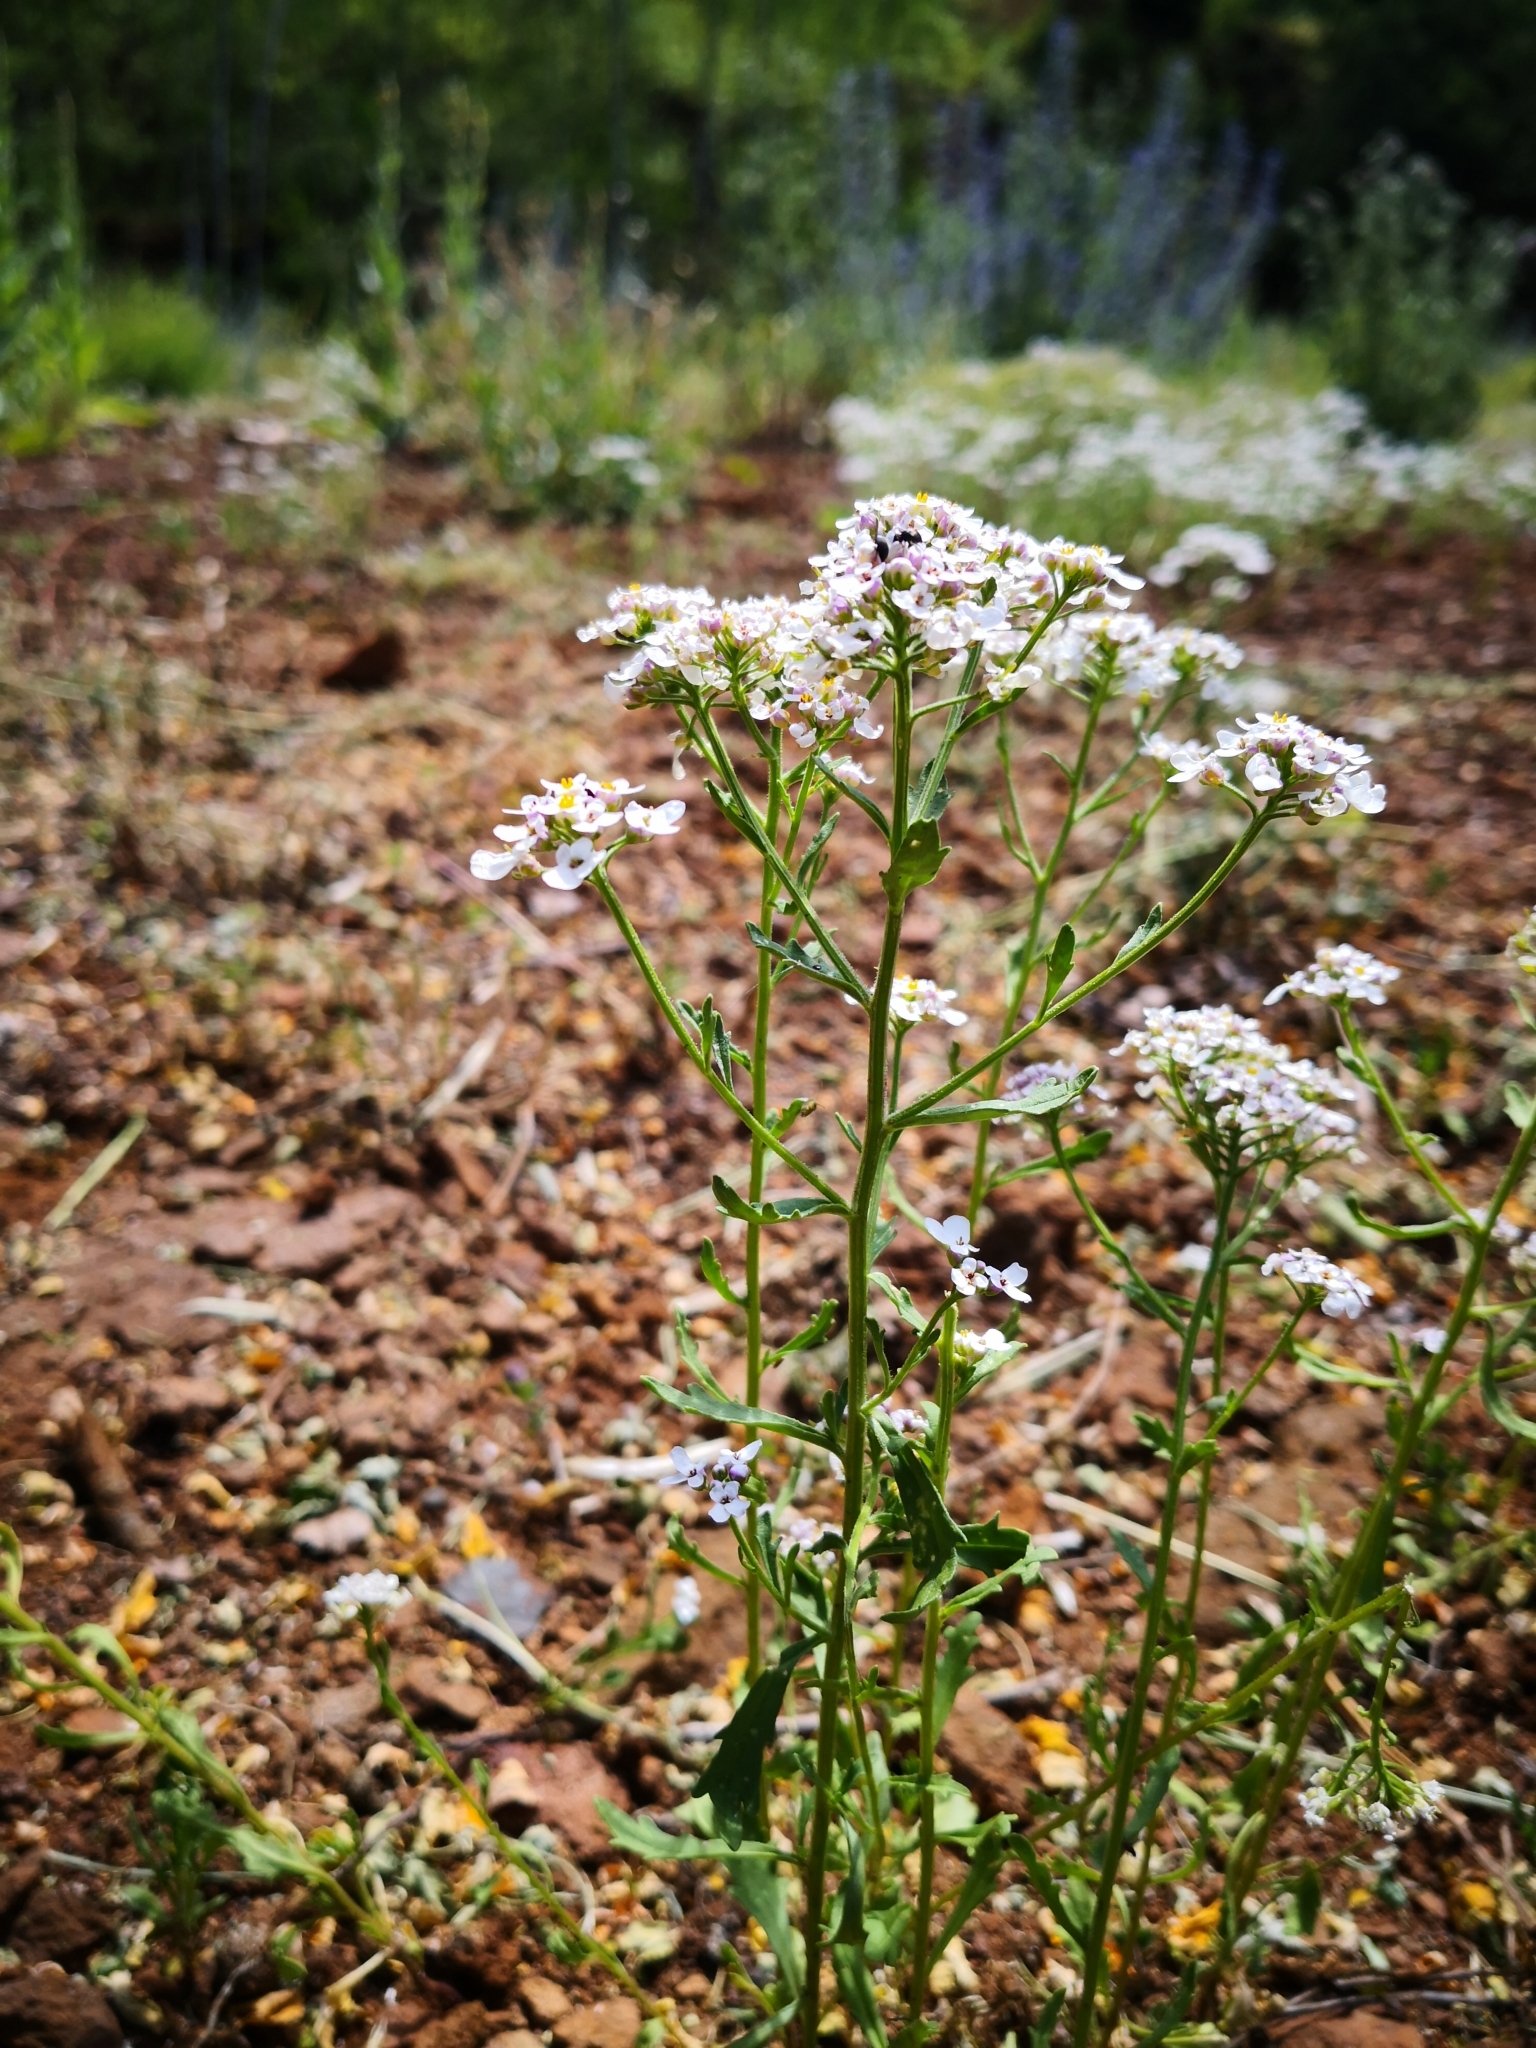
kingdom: Plantae
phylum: Tracheophyta
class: Magnoliopsida
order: Brassicales
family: Brassicaceae
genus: Iberis
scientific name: Iberis amara
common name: Annual candytuft
